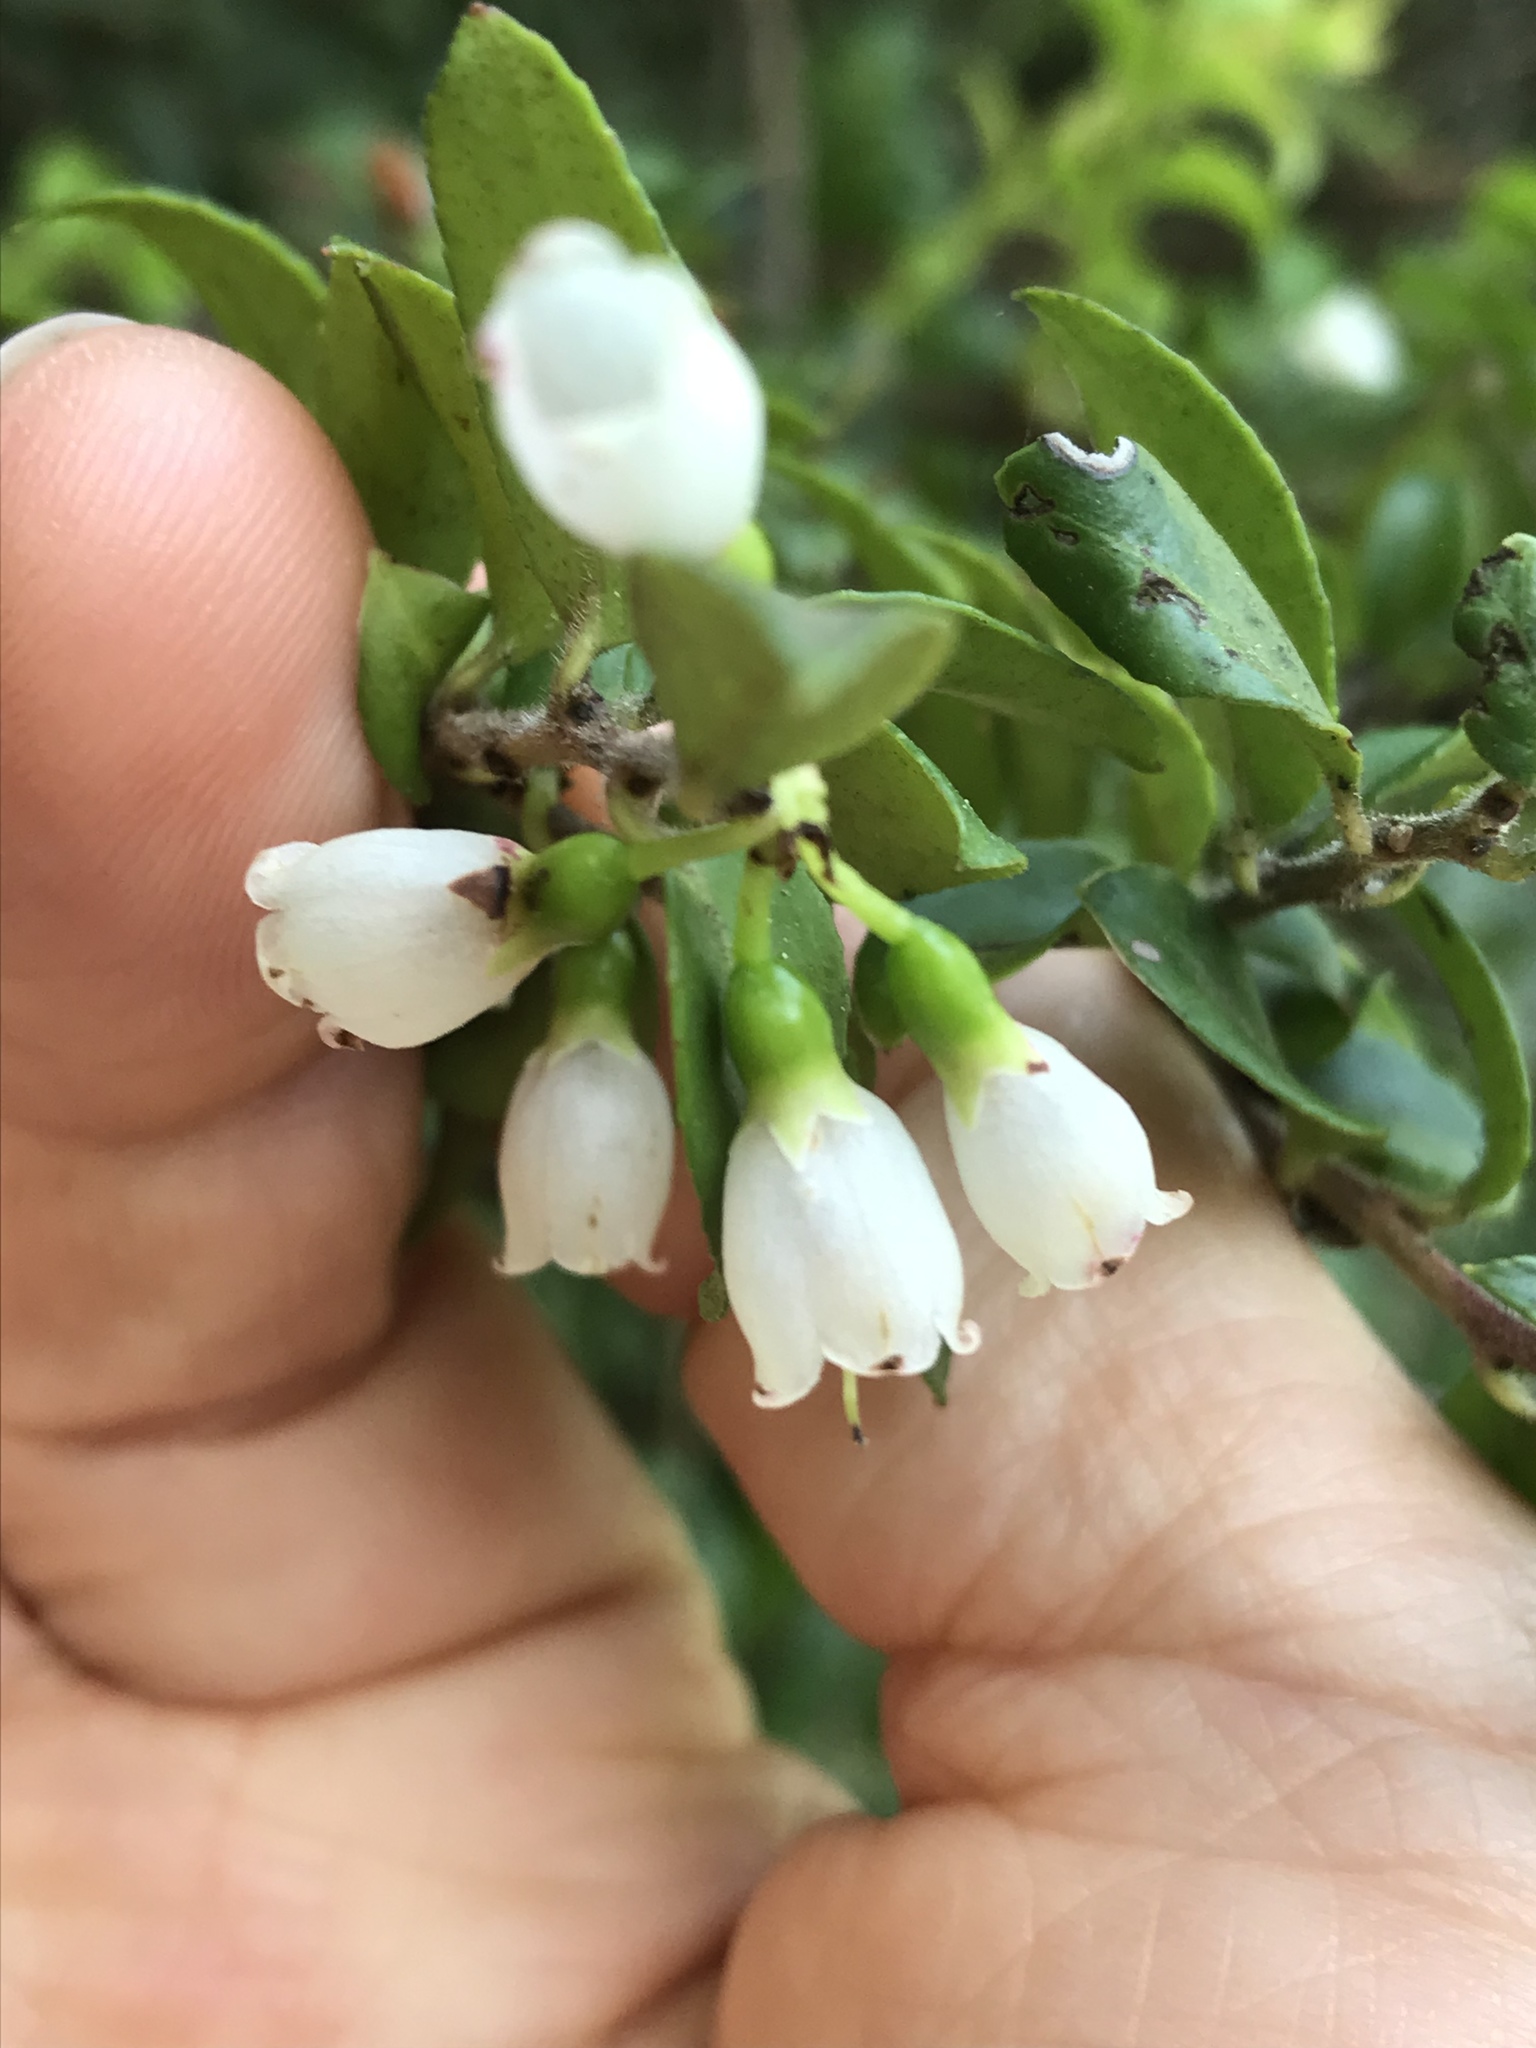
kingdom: Plantae
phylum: Tracheophyta
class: Magnoliopsida
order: Ericales
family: Ericaceae
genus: Vaccinium
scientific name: Vaccinium ovatum
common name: California-huckleberry
